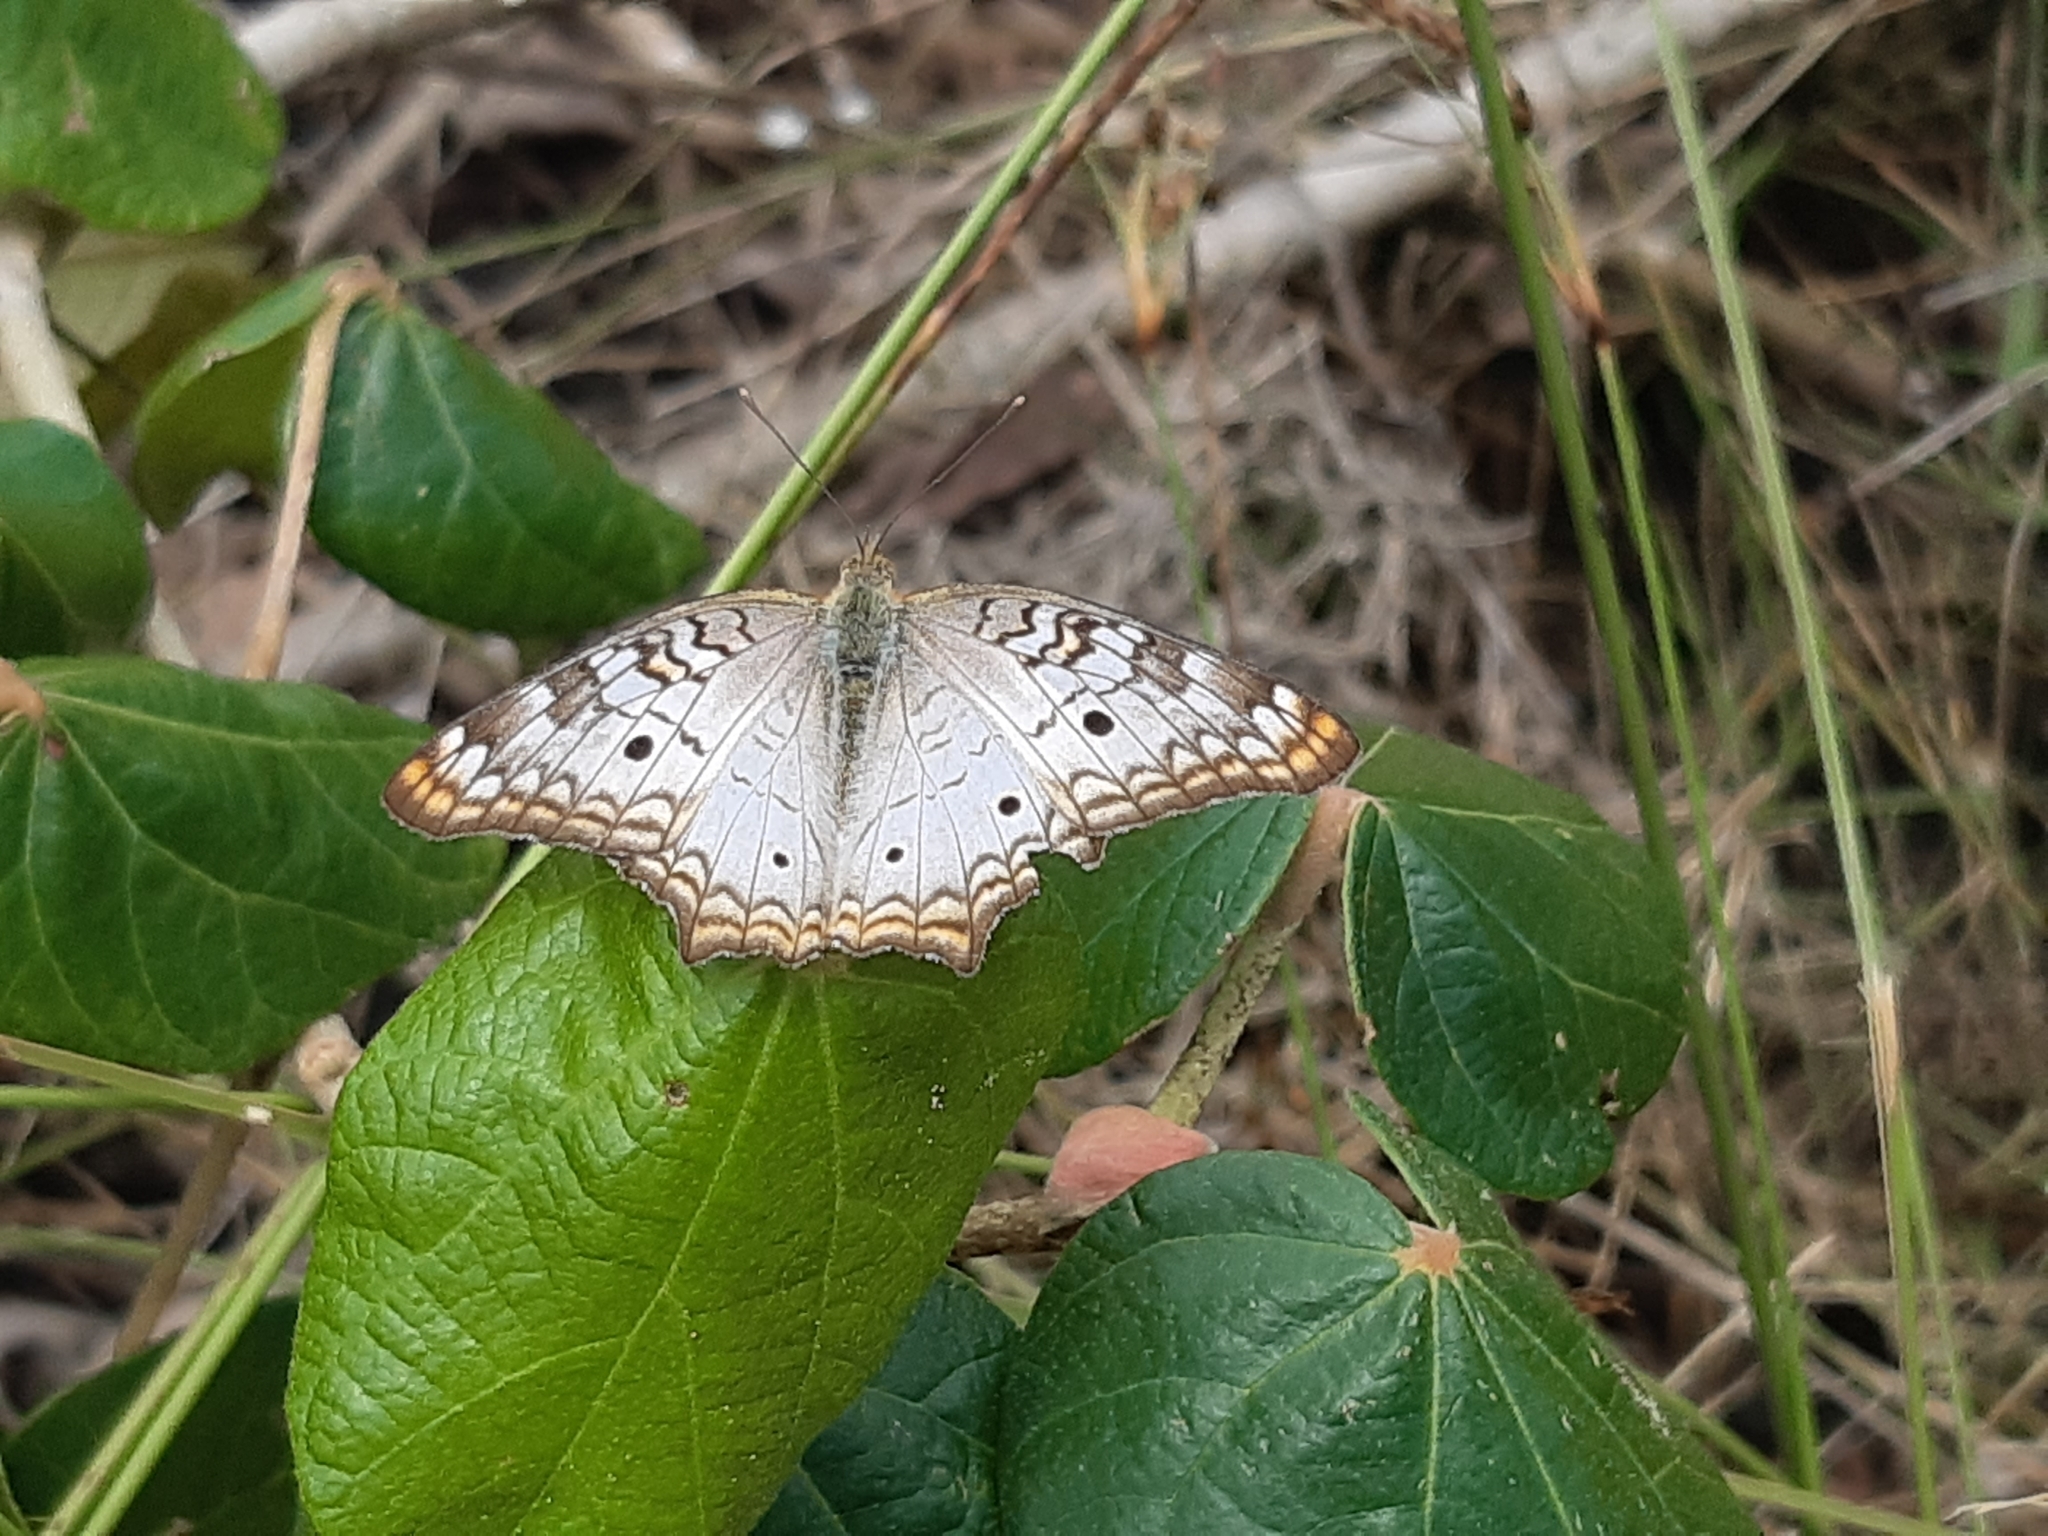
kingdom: Animalia
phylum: Arthropoda
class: Insecta
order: Lepidoptera
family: Nymphalidae
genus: Anartia
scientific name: Anartia jatrophae
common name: White peacock
